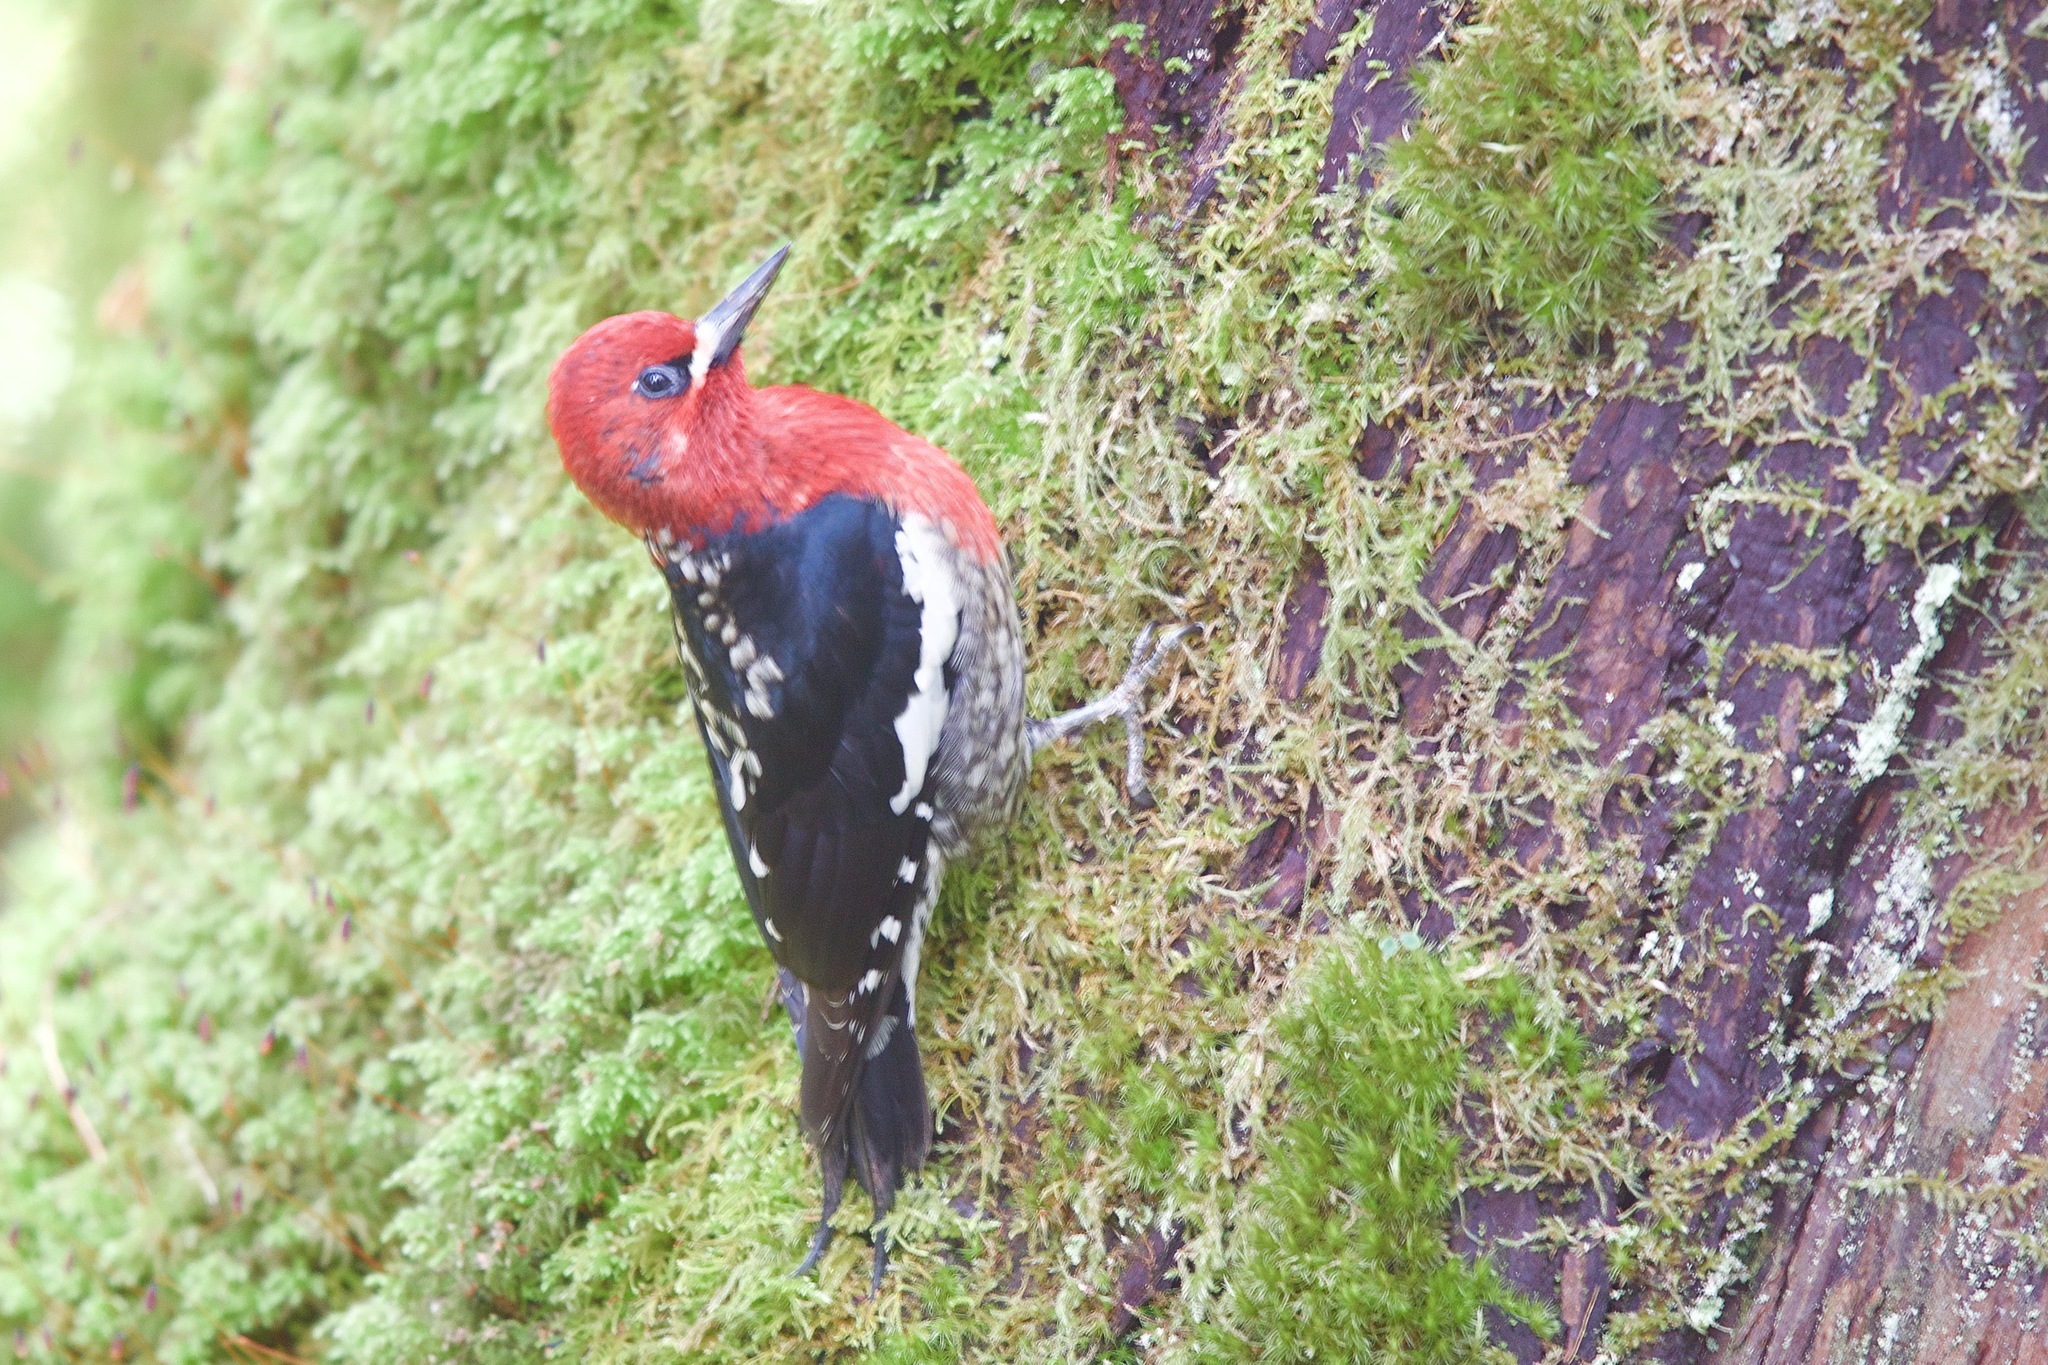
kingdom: Animalia
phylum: Chordata
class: Aves
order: Piciformes
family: Picidae
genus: Sphyrapicus
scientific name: Sphyrapicus ruber
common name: Red-breasted sapsucker
